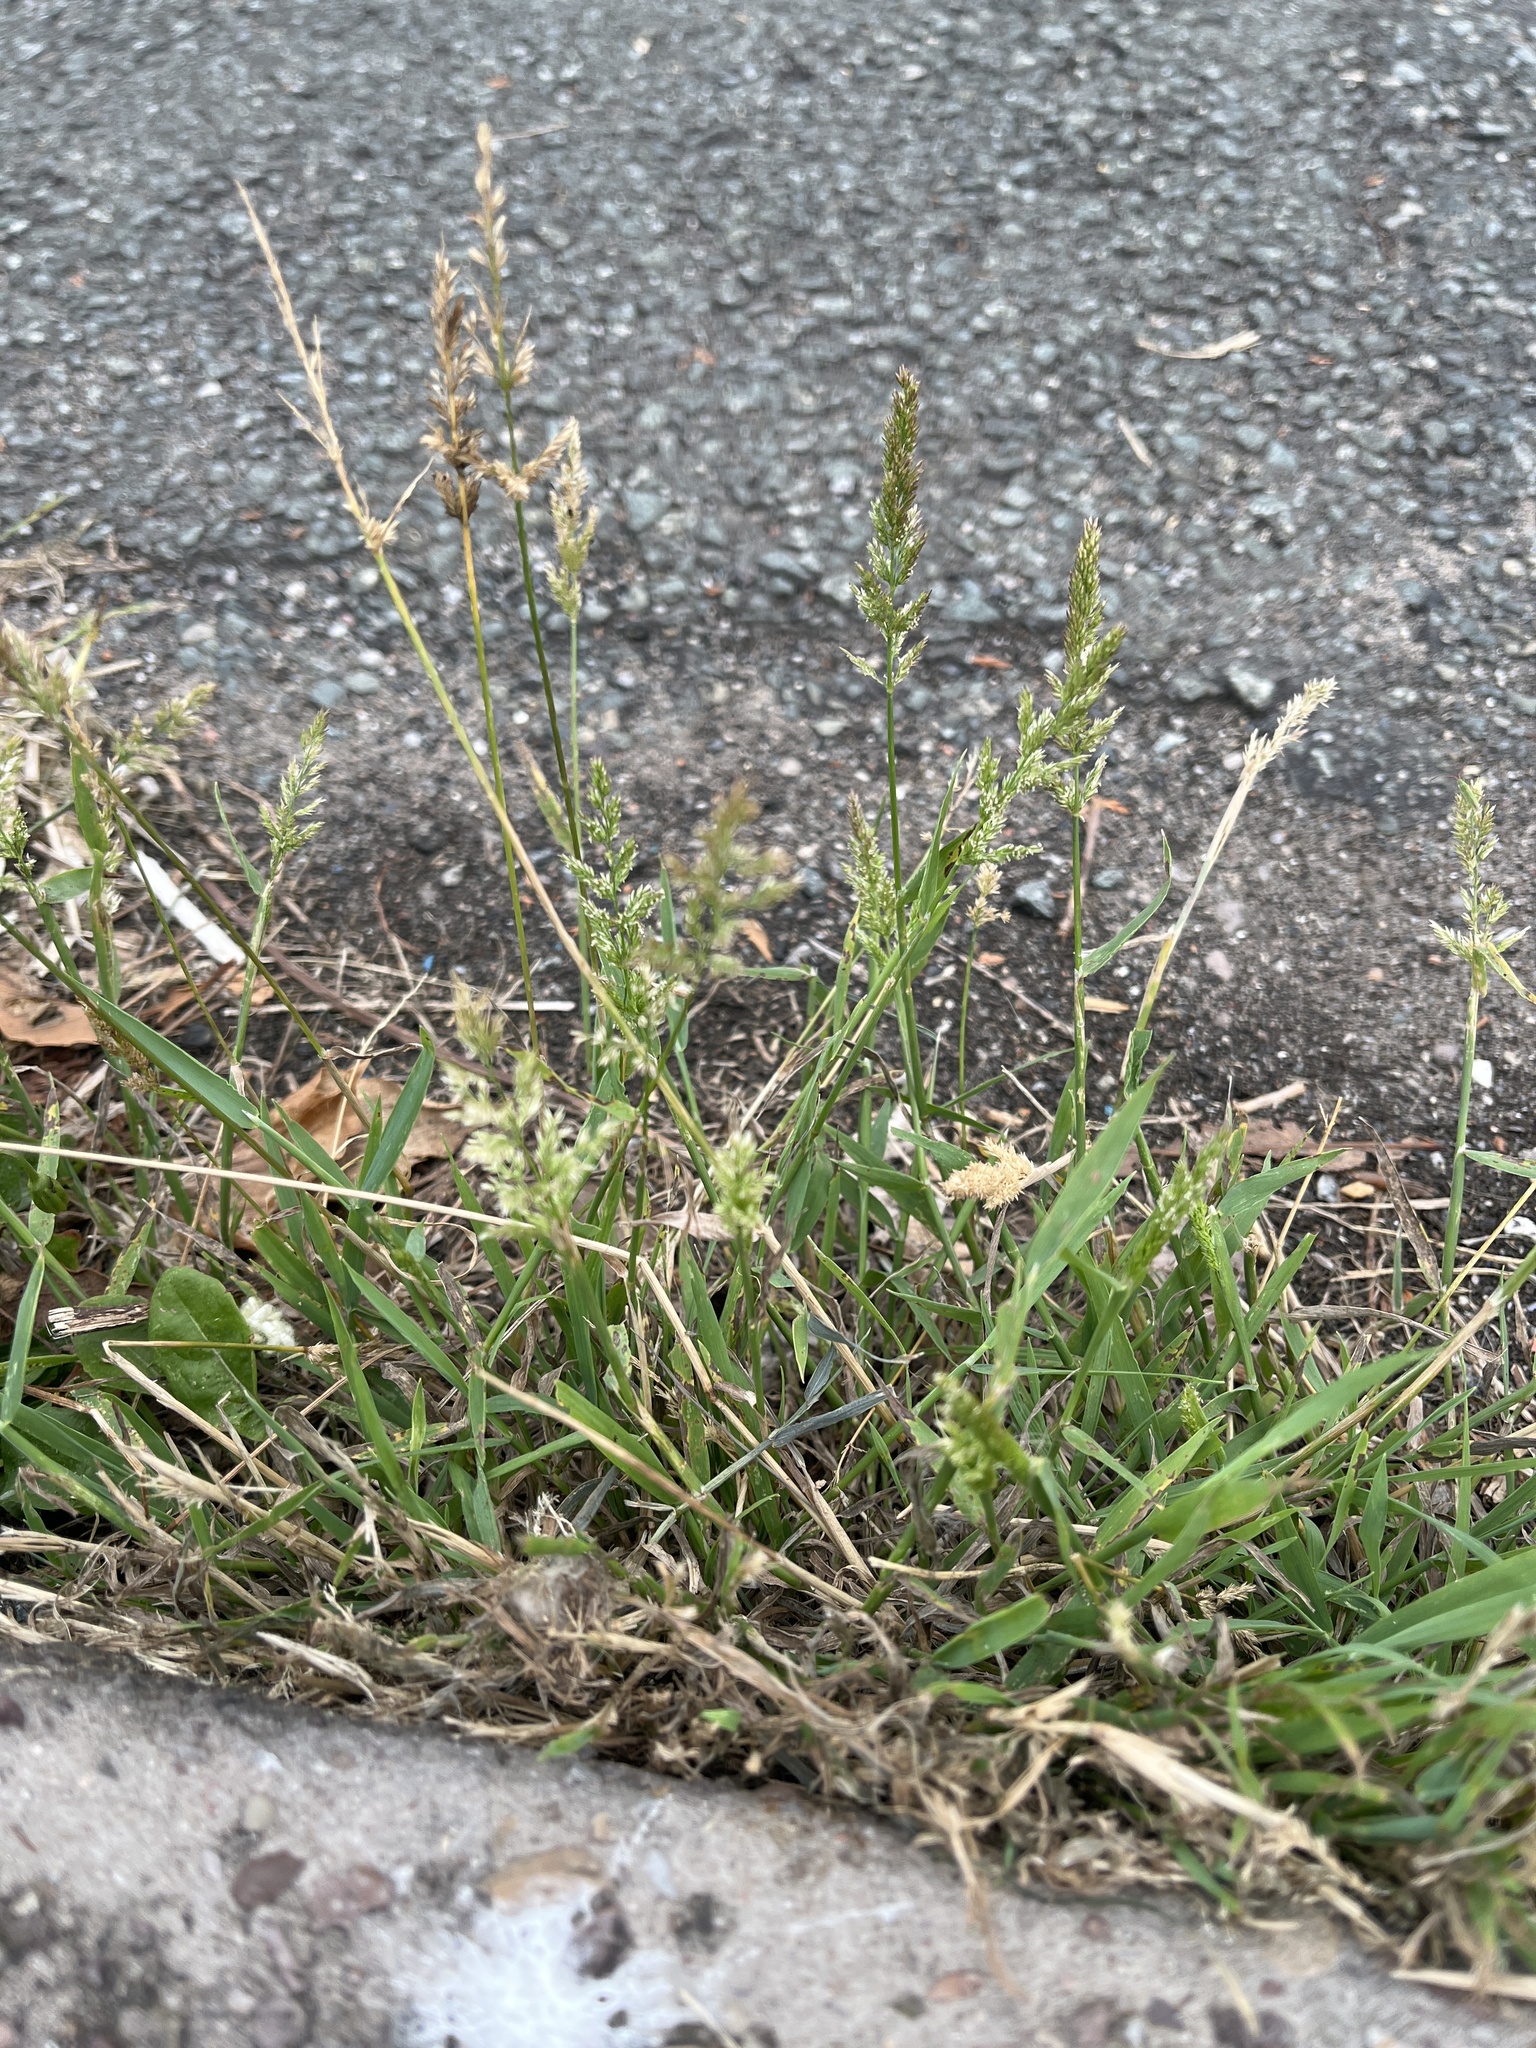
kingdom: Plantae
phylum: Tracheophyta
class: Liliopsida
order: Poales
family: Poaceae
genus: Polypogon
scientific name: Polypogon viridis
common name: Water bent
